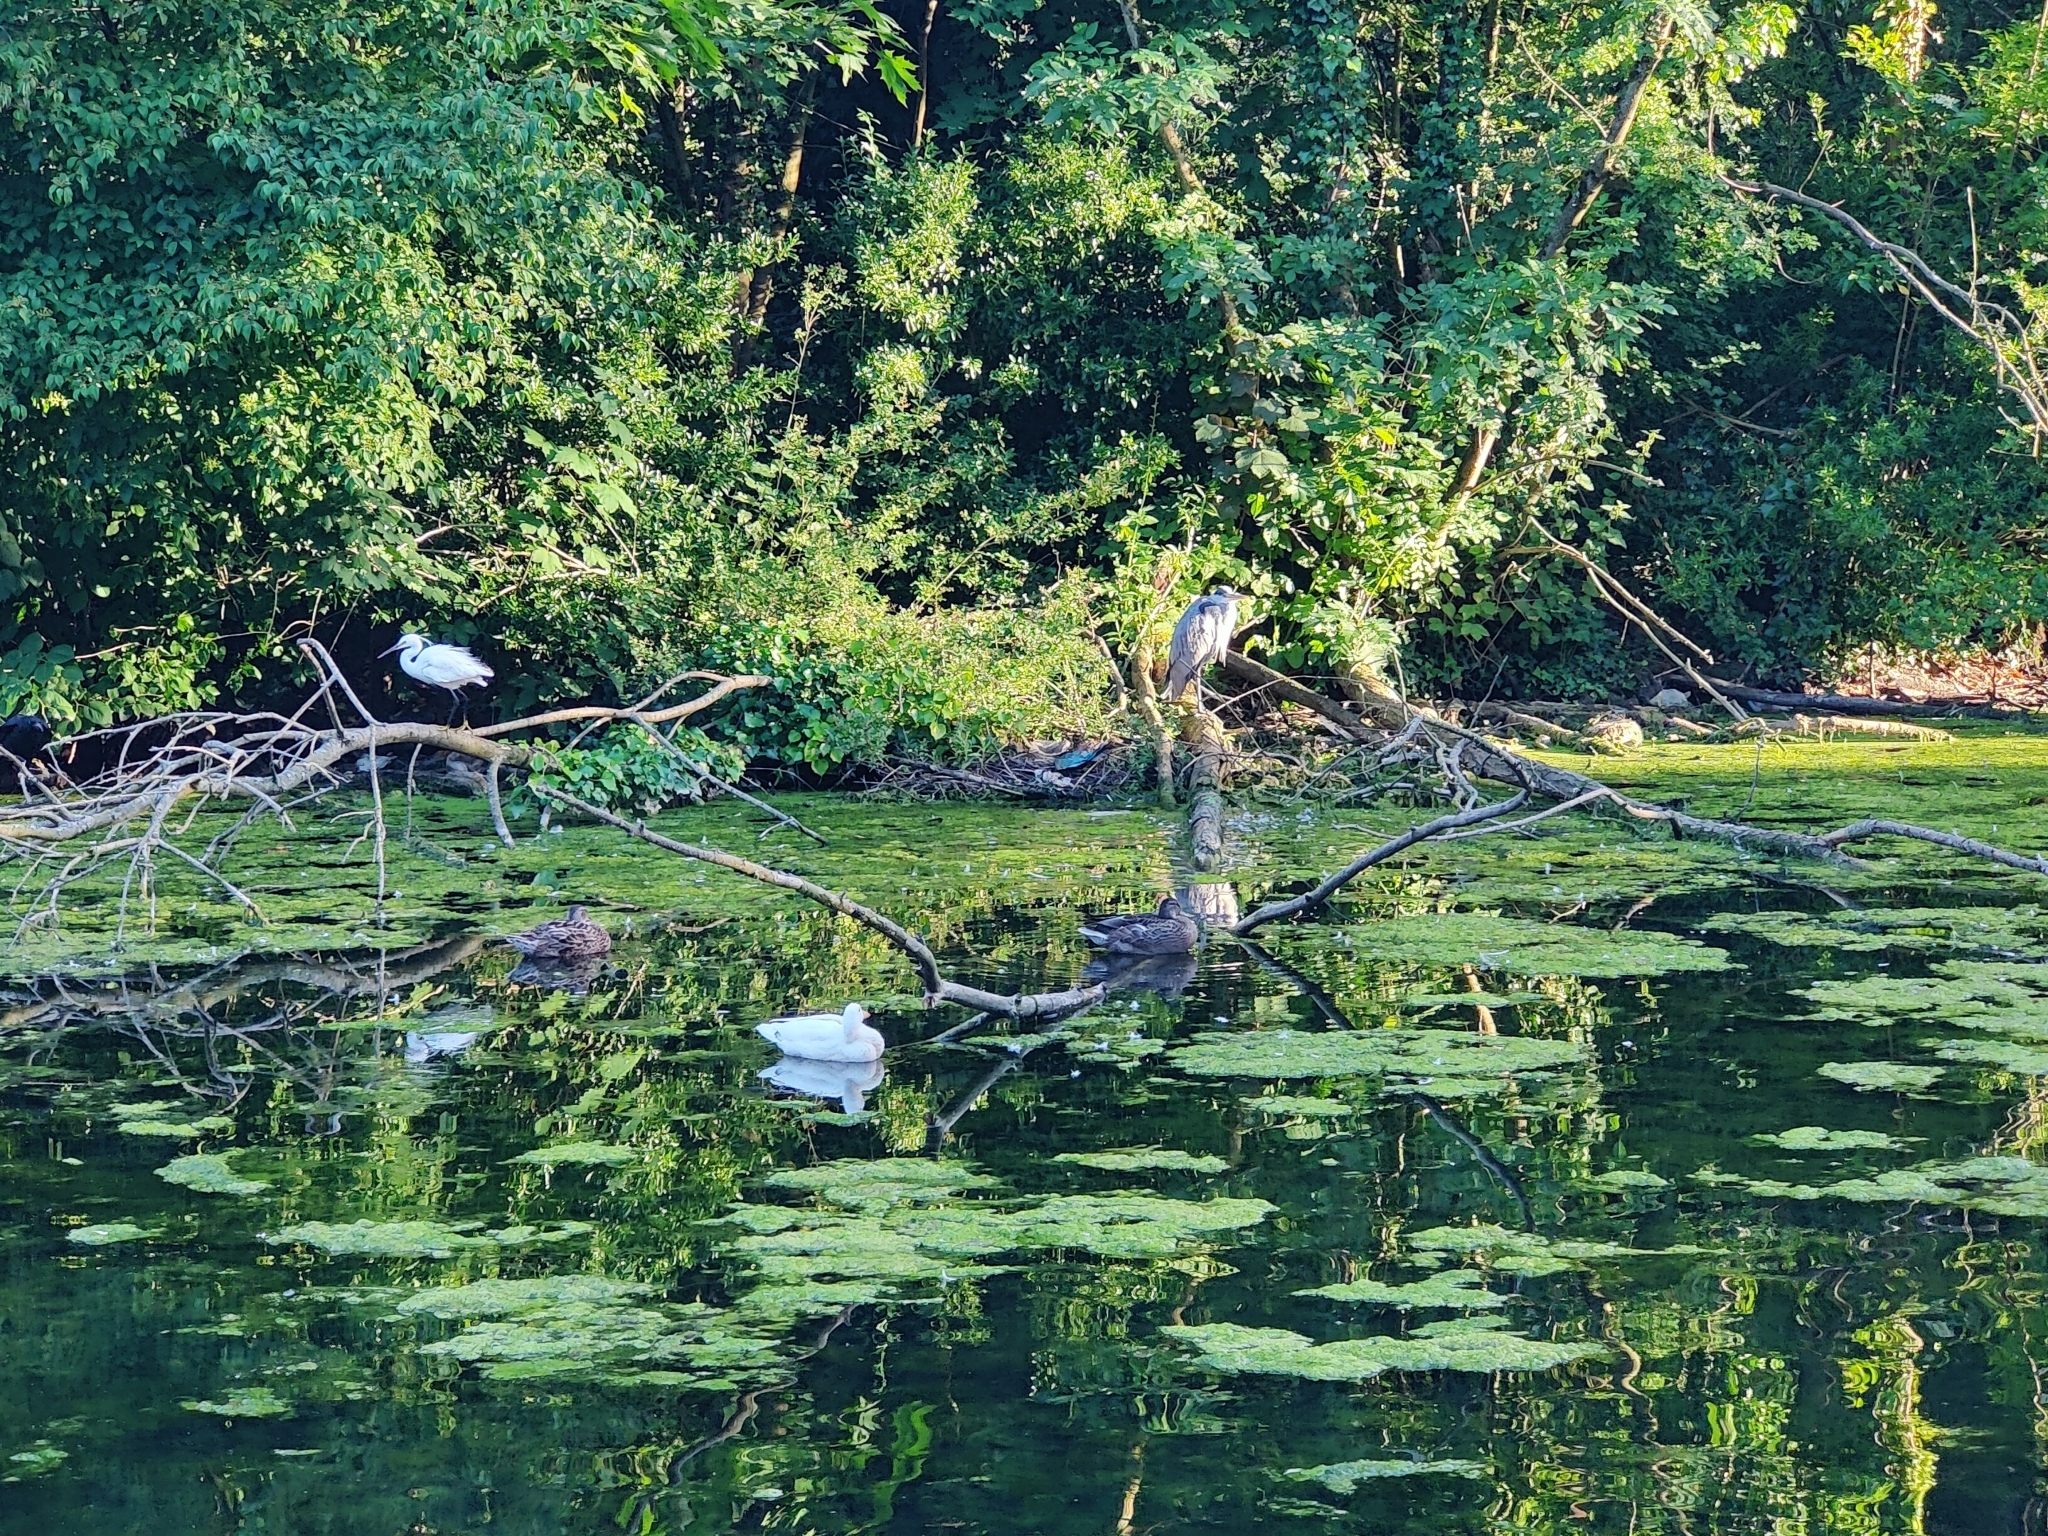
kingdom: Animalia
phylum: Chordata
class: Aves
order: Pelecaniformes
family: Ardeidae
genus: Egretta
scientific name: Egretta garzetta
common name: Little egret
